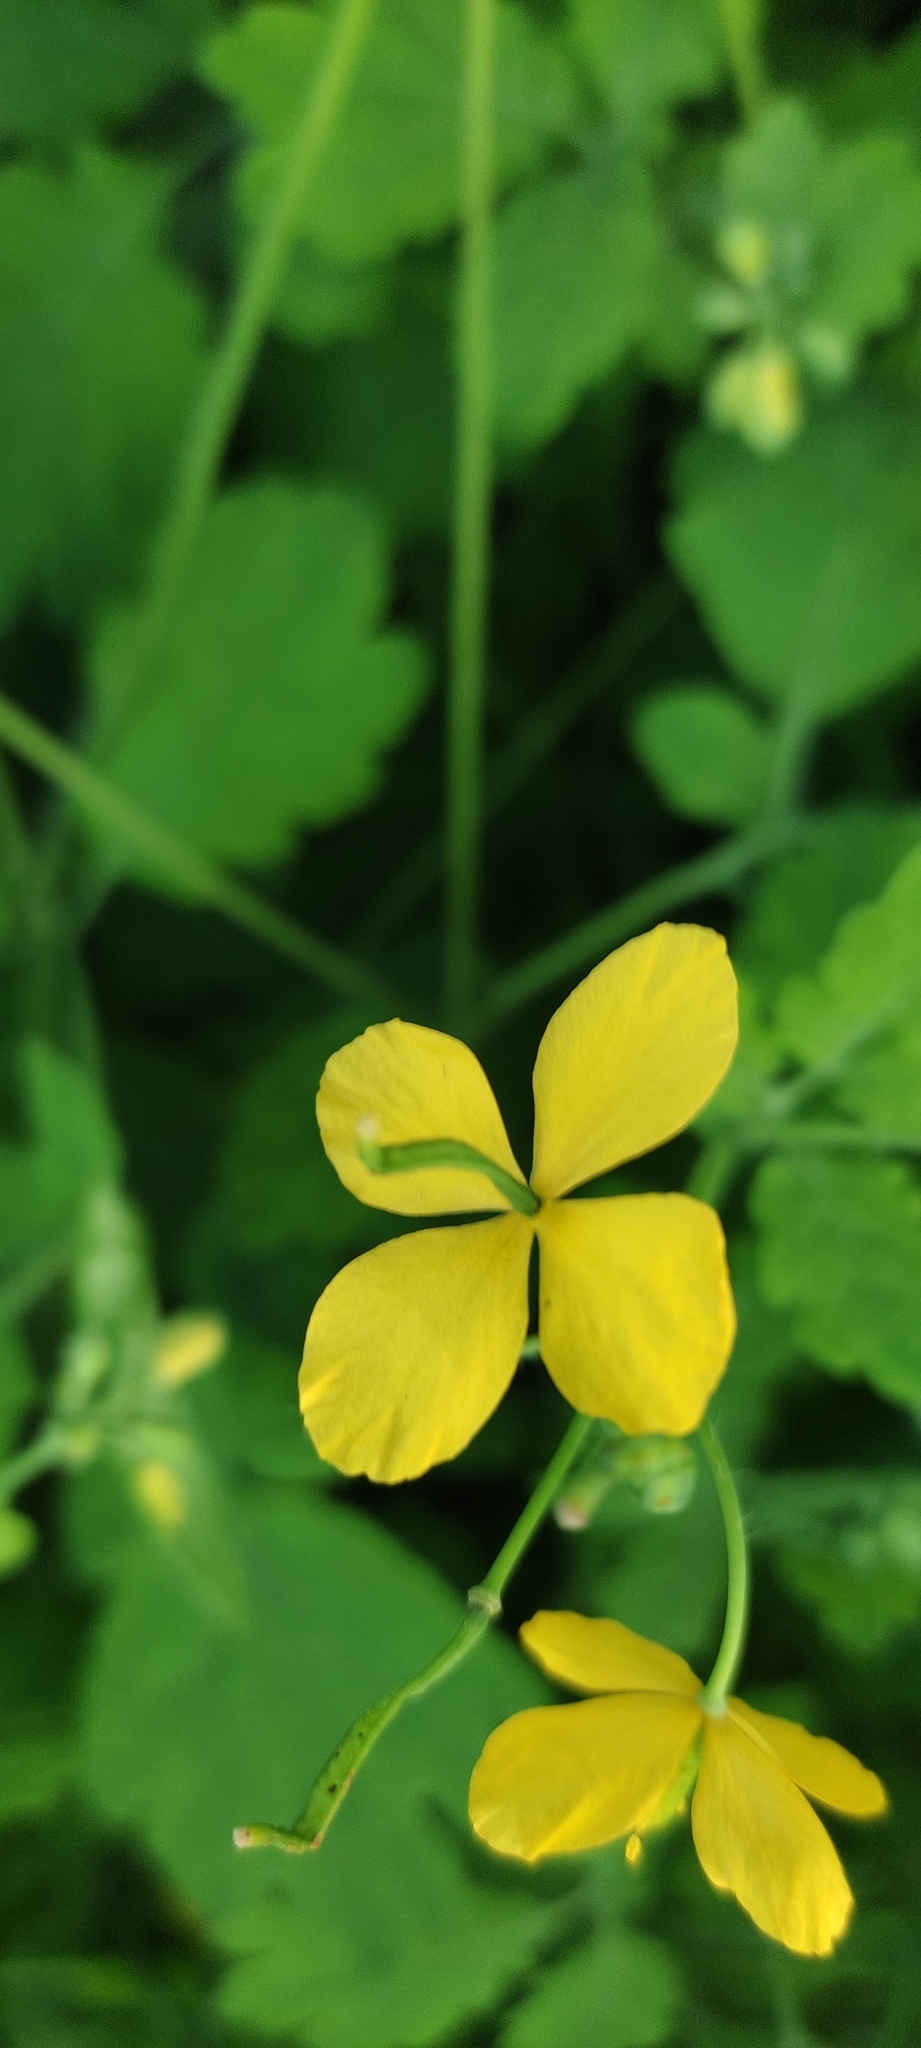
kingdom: Plantae
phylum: Tracheophyta
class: Magnoliopsida
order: Ranunculales
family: Papaveraceae
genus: Chelidonium
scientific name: Chelidonium majus
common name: Greater celandine
